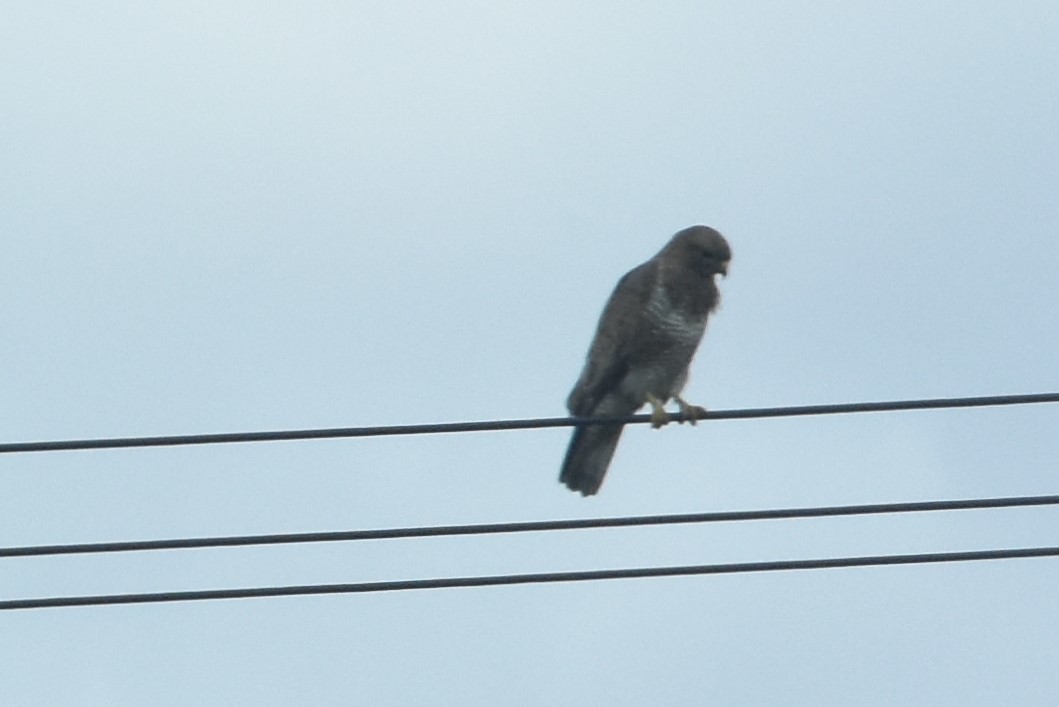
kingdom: Animalia
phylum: Chordata
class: Aves
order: Accipitriformes
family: Accipitridae
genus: Buteo
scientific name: Buteo buteo
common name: Common buzzard
